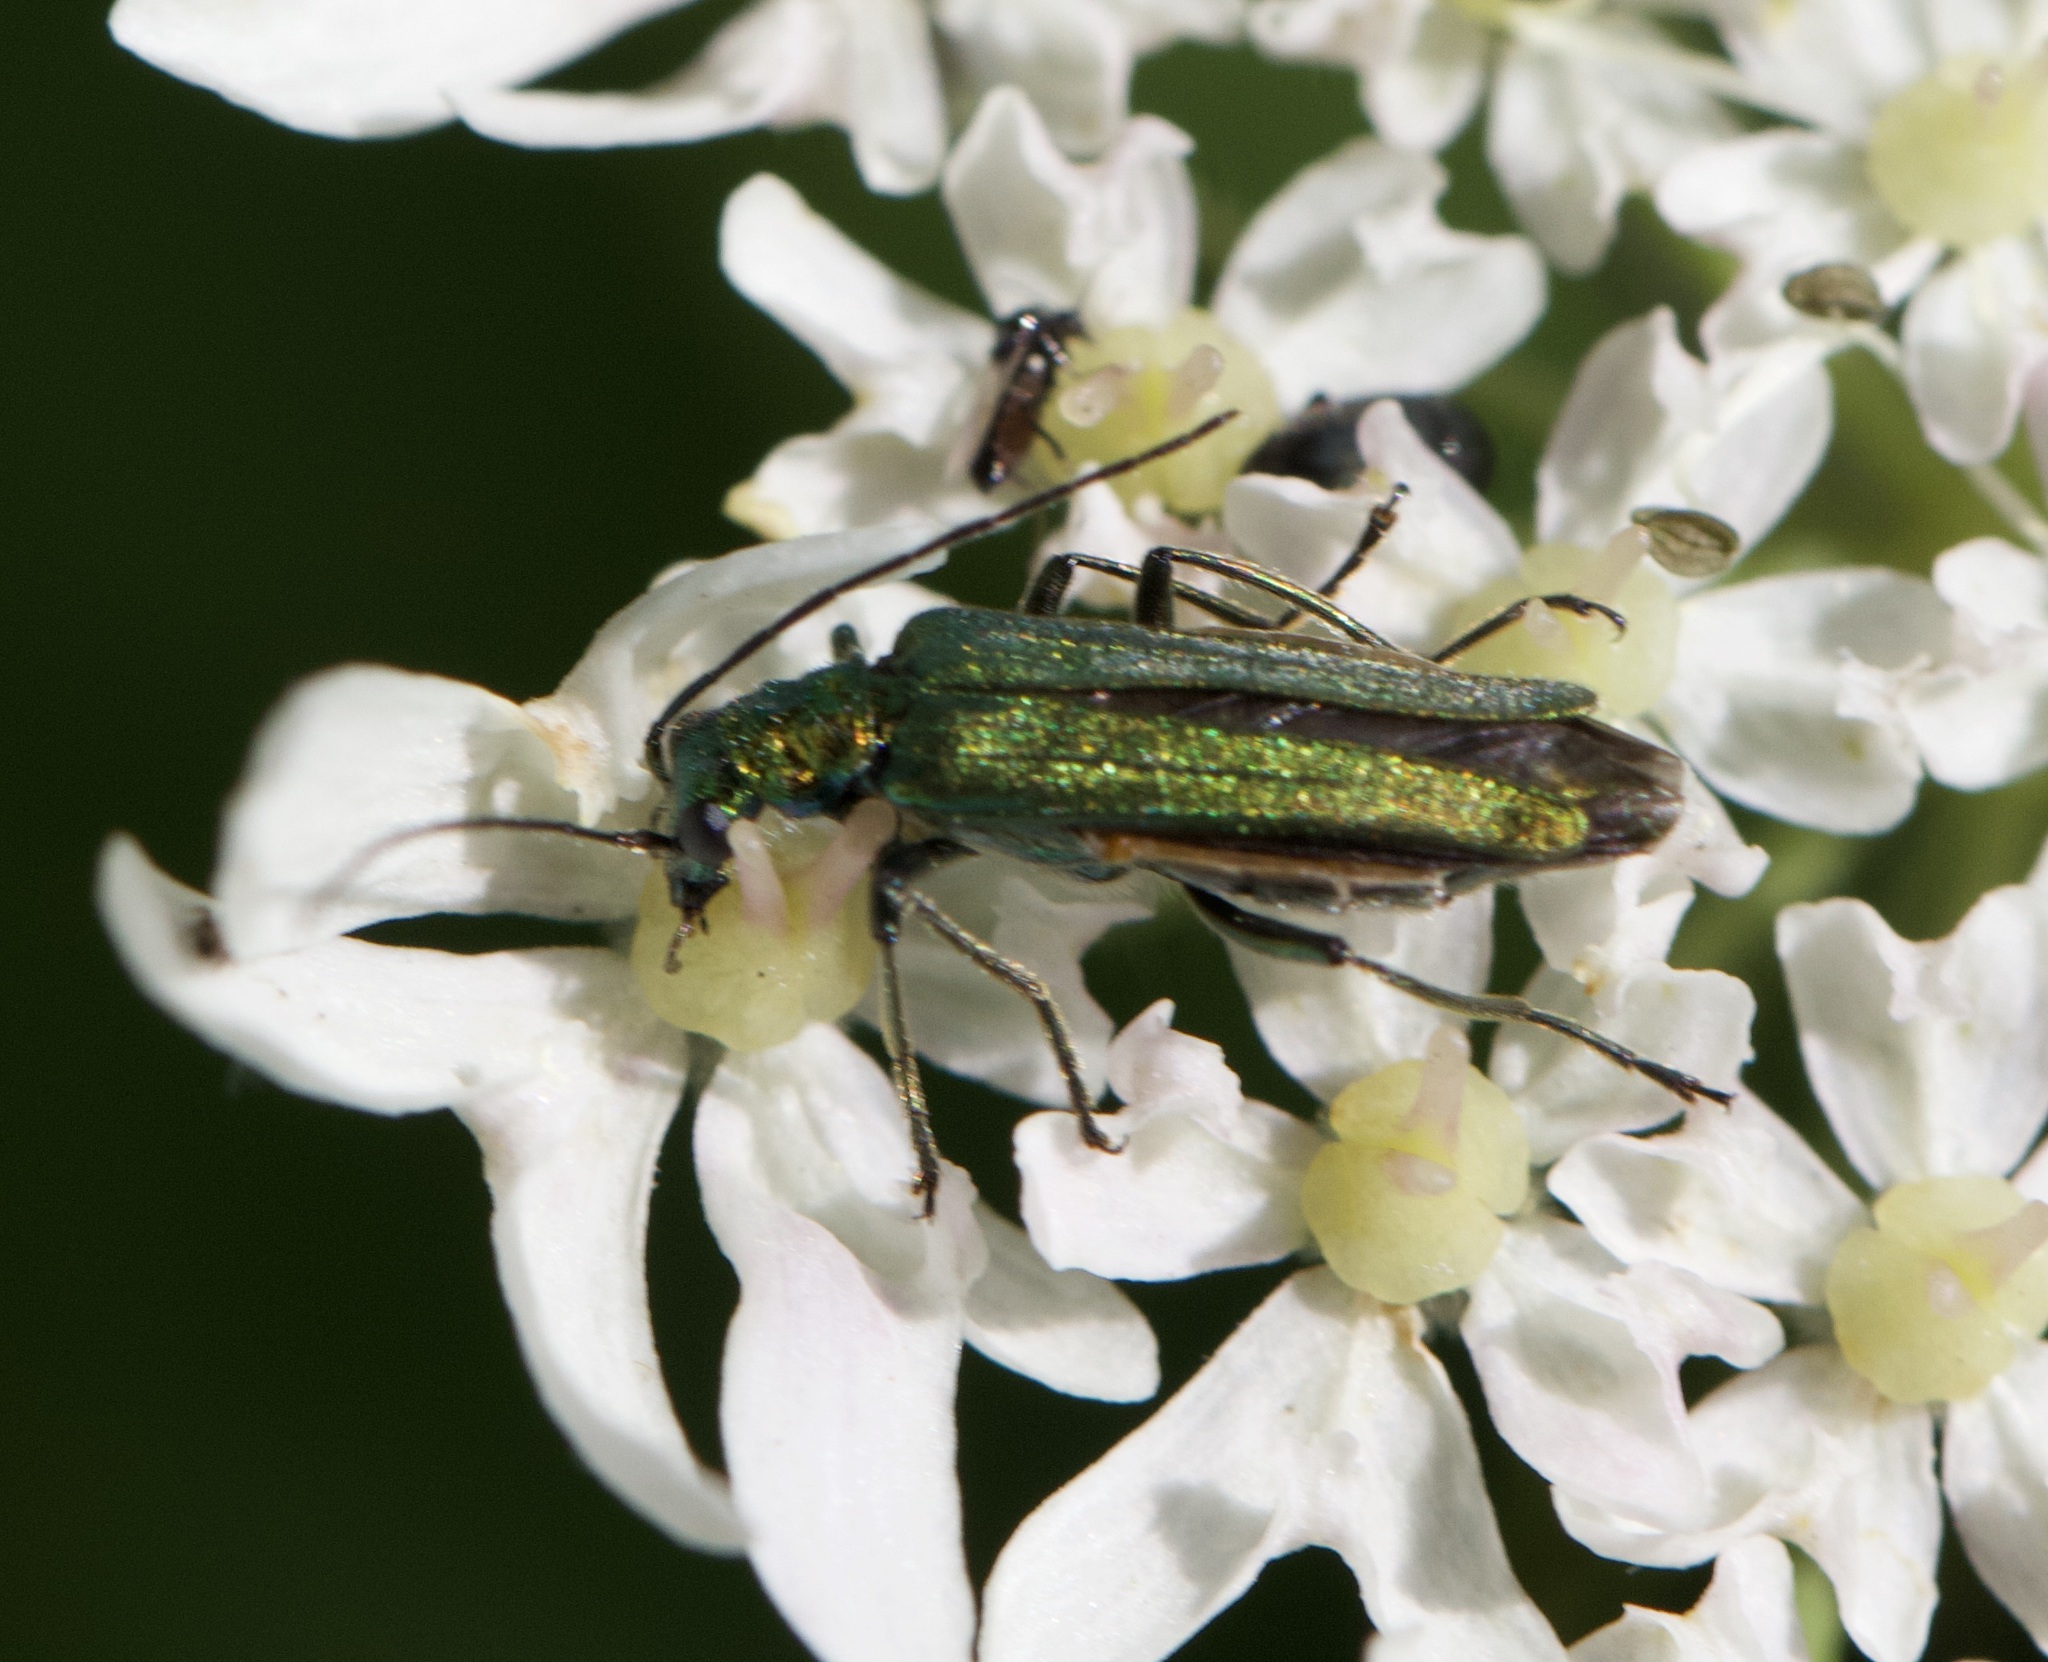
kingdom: Animalia
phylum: Arthropoda
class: Insecta
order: Coleoptera
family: Oedemeridae
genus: Oedemera
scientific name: Oedemera nobilis
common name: Swollen-thighed beetle
